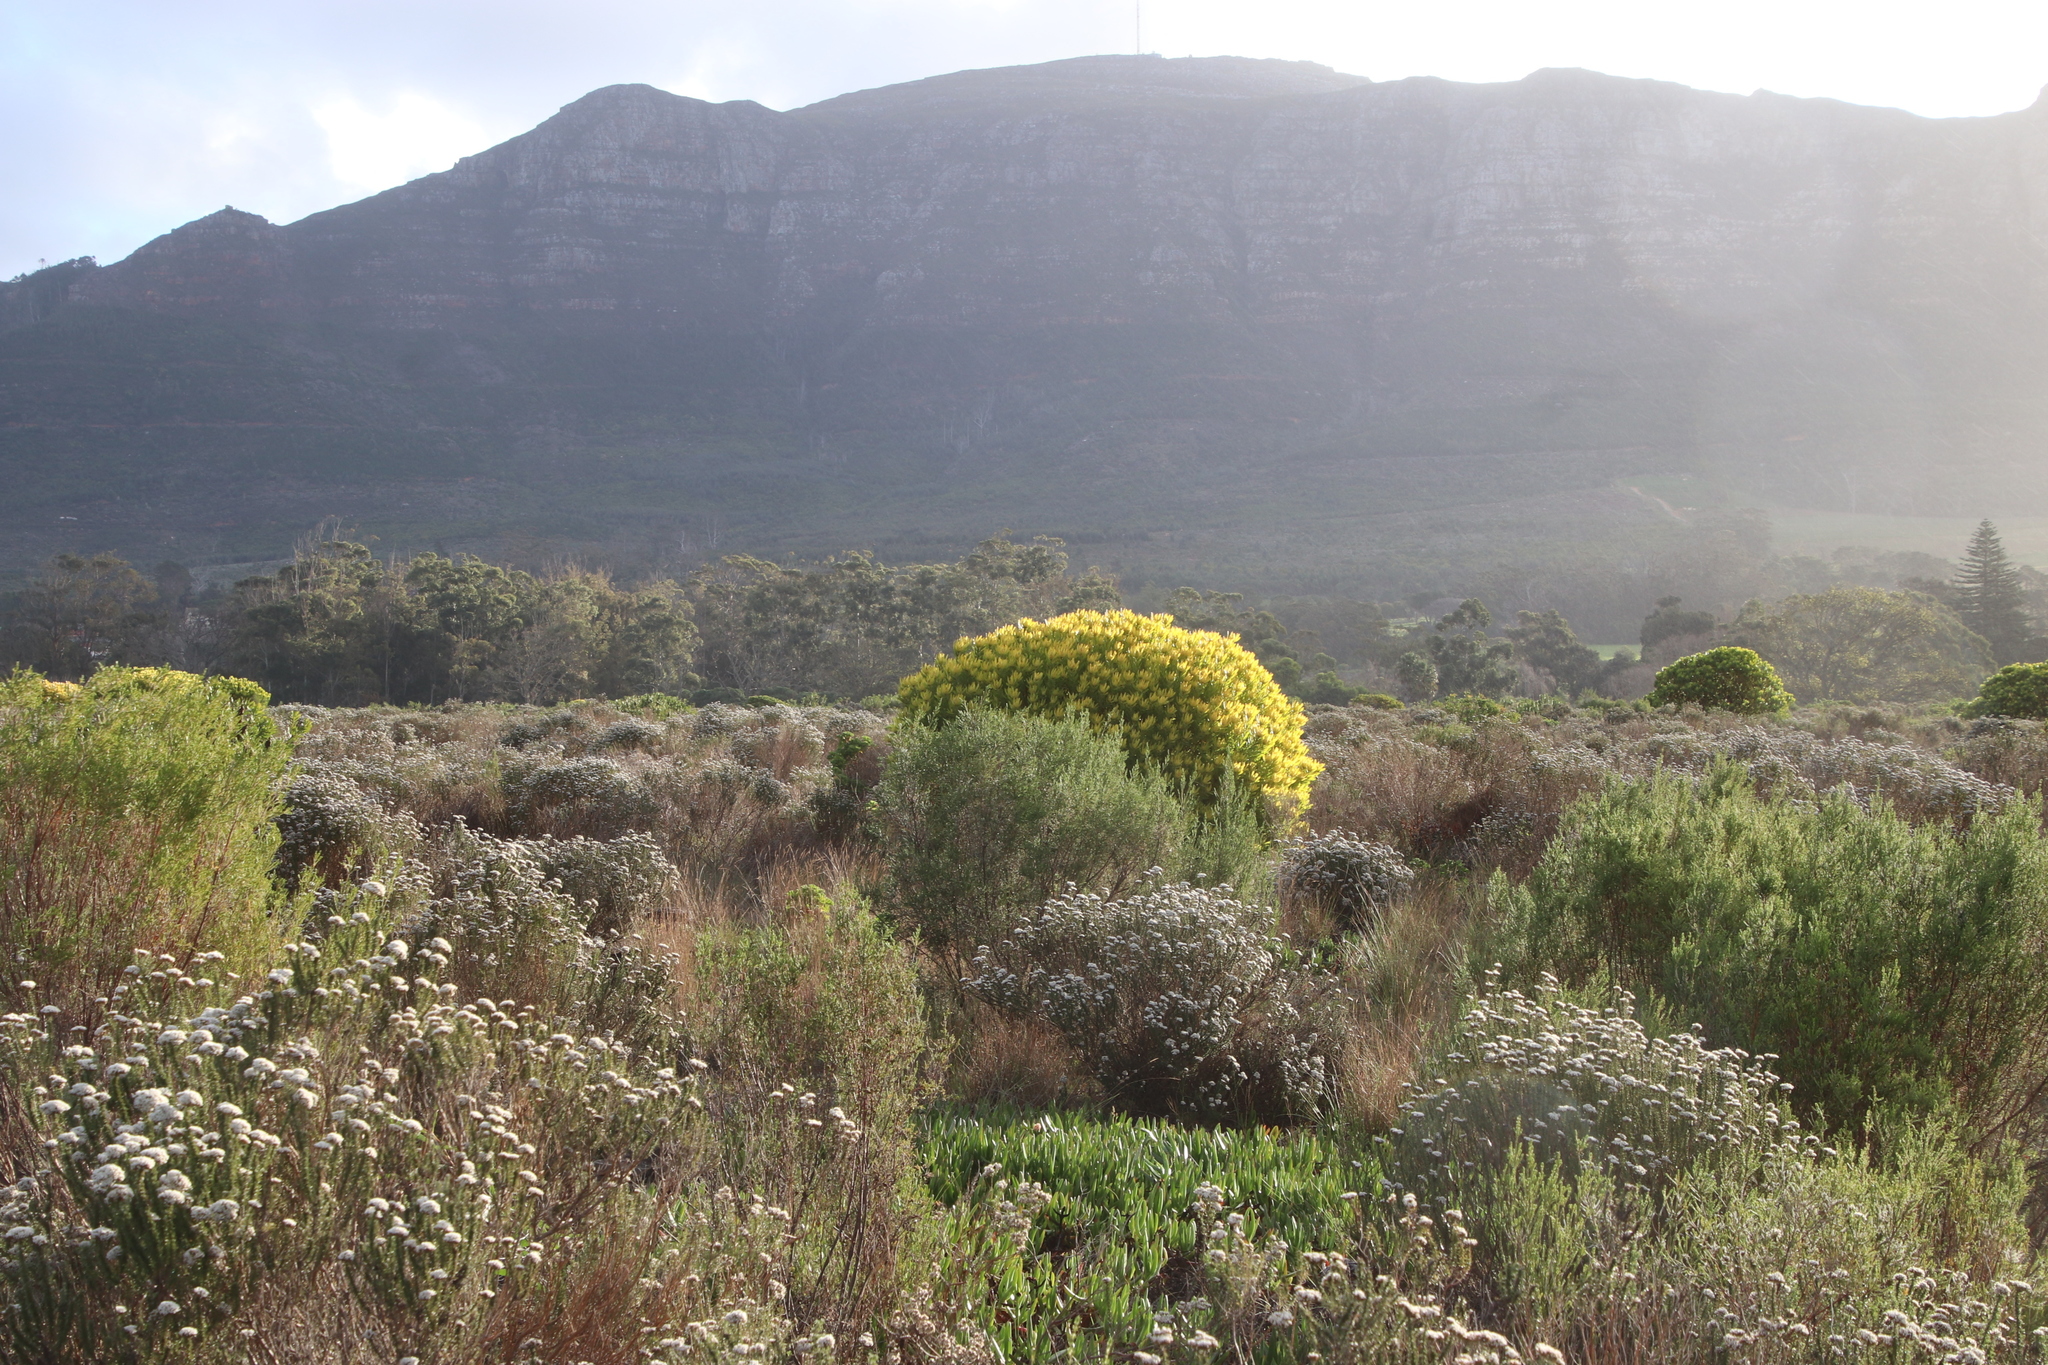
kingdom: Plantae
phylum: Tracheophyta
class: Magnoliopsida
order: Proteales
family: Proteaceae
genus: Leucadendron
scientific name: Leucadendron laureolum
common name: Golden sunshinebush
